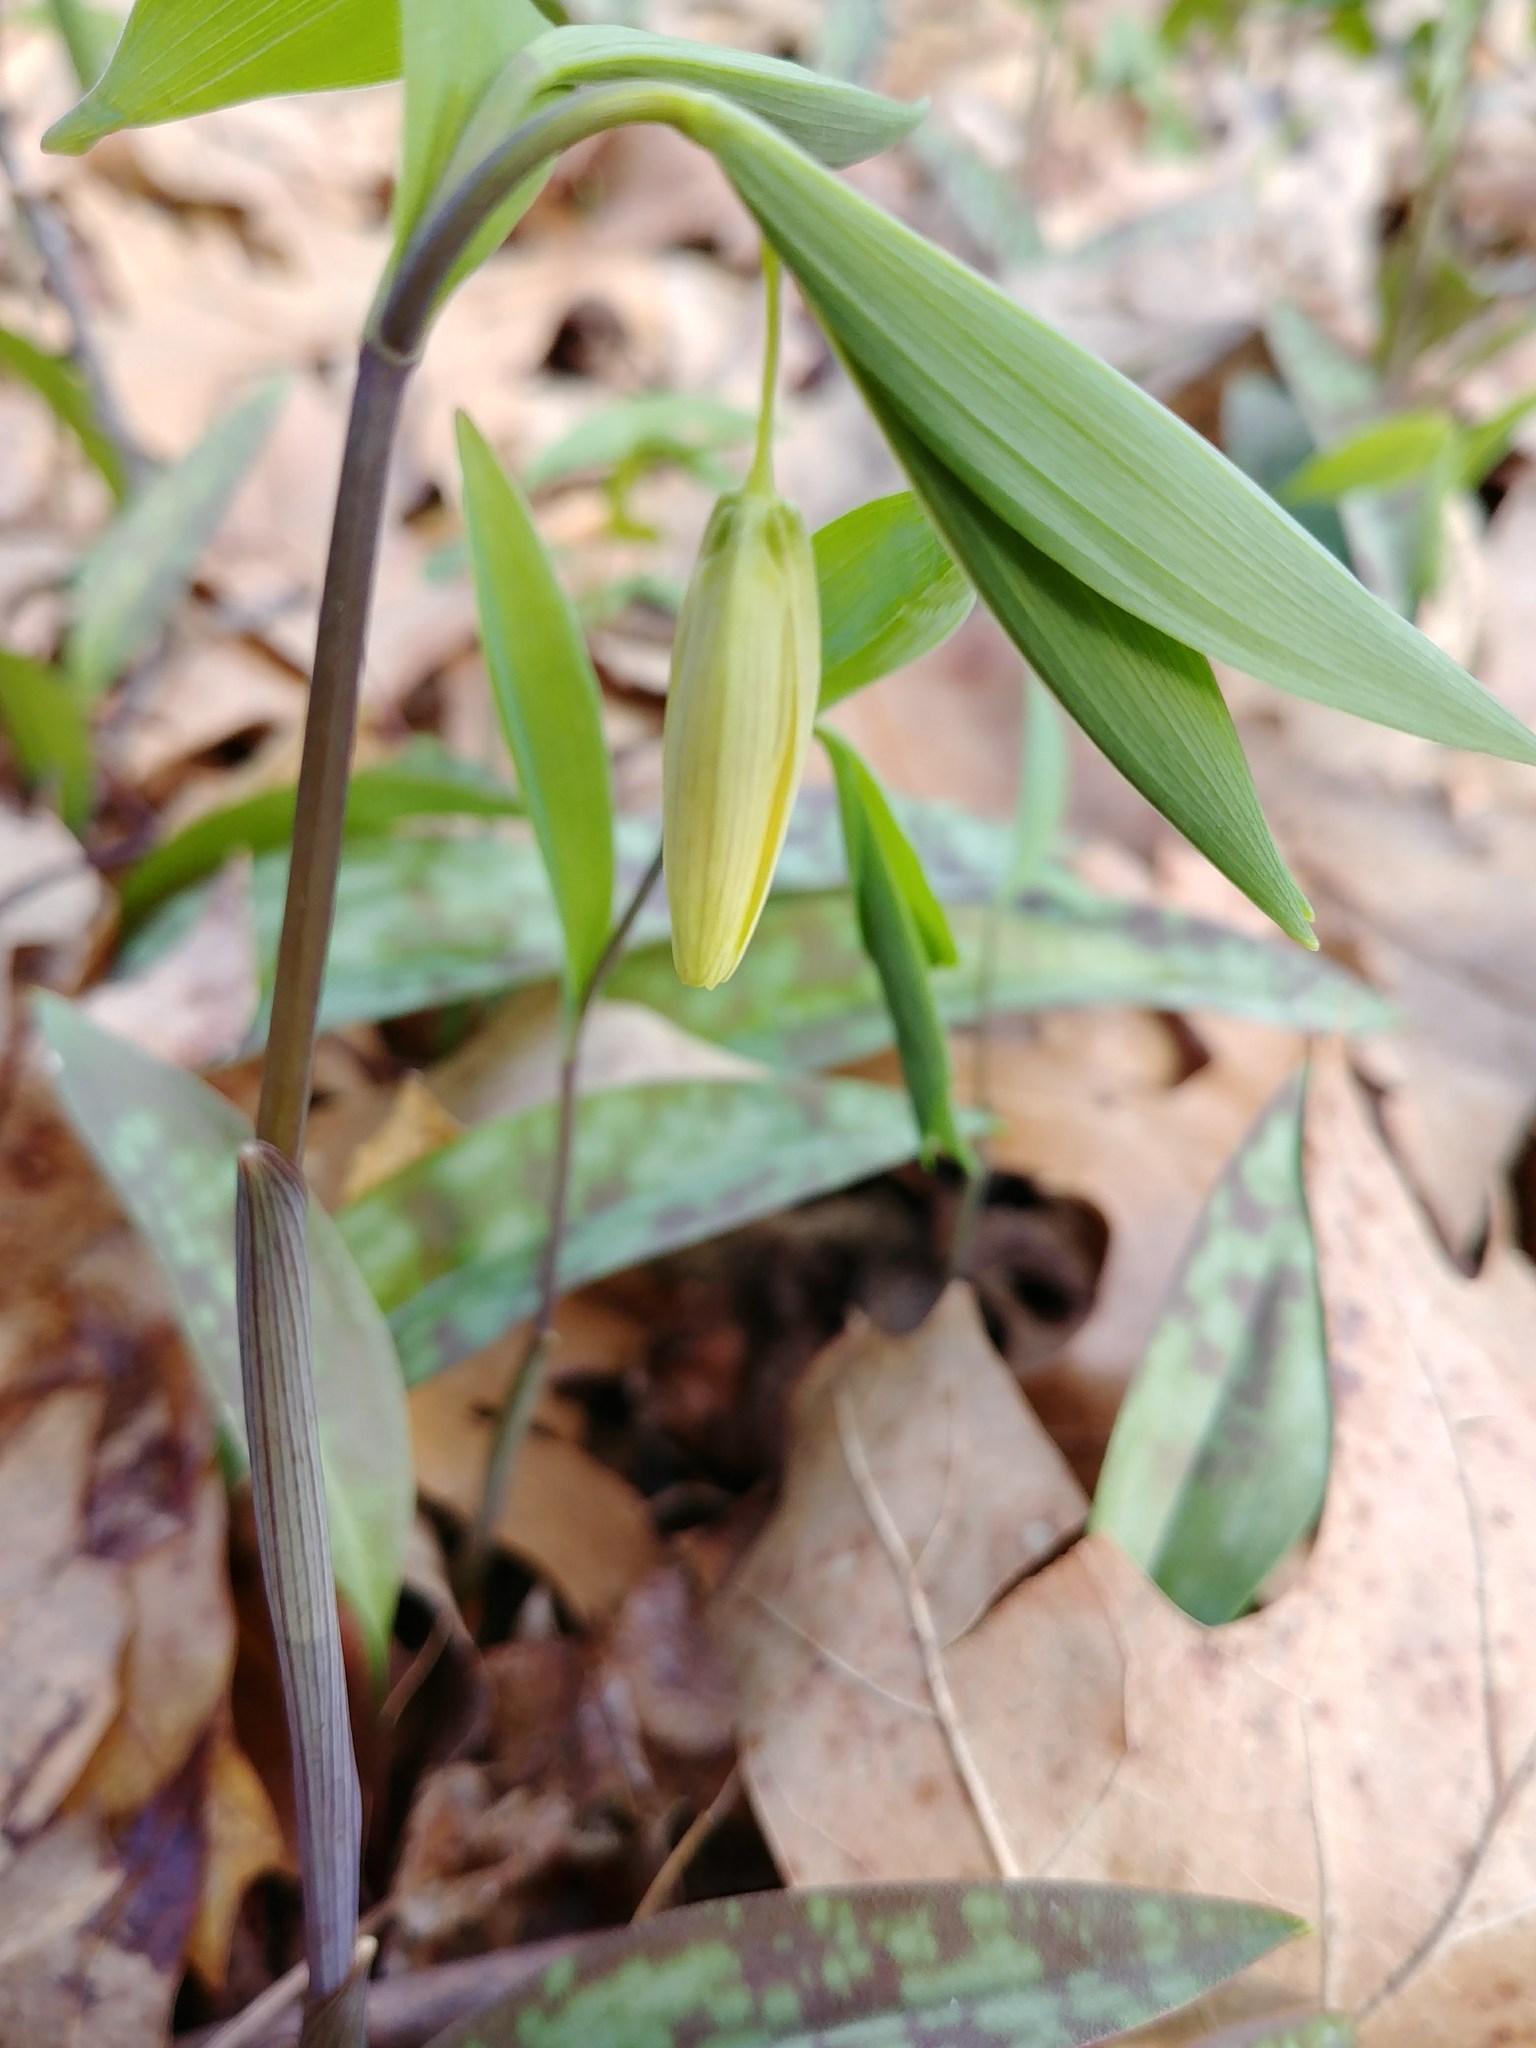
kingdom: Plantae
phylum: Tracheophyta
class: Liliopsida
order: Liliales
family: Colchicaceae
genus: Uvularia
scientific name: Uvularia sessilifolia
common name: Straw-lily
